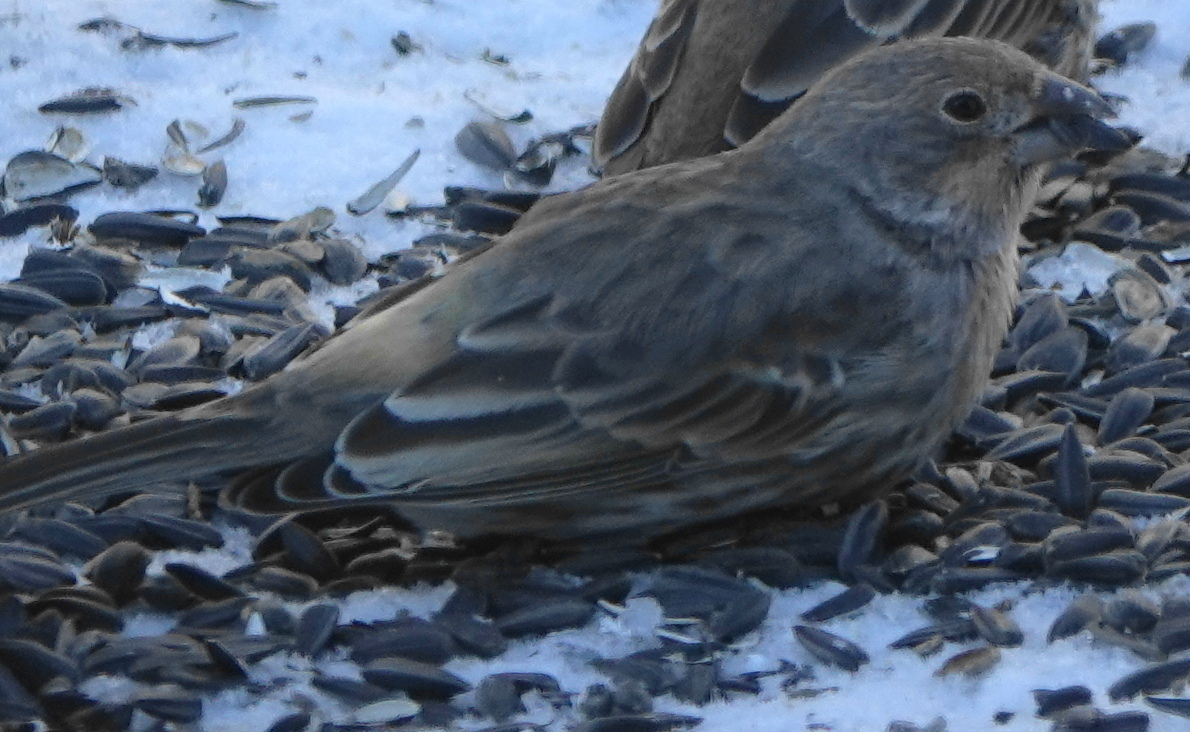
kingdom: Animalia
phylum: Chordata
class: Aves
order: Passeriformes
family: Fringillidae
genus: Haemorhous
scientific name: Haemorhous mexicanus
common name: House finch
